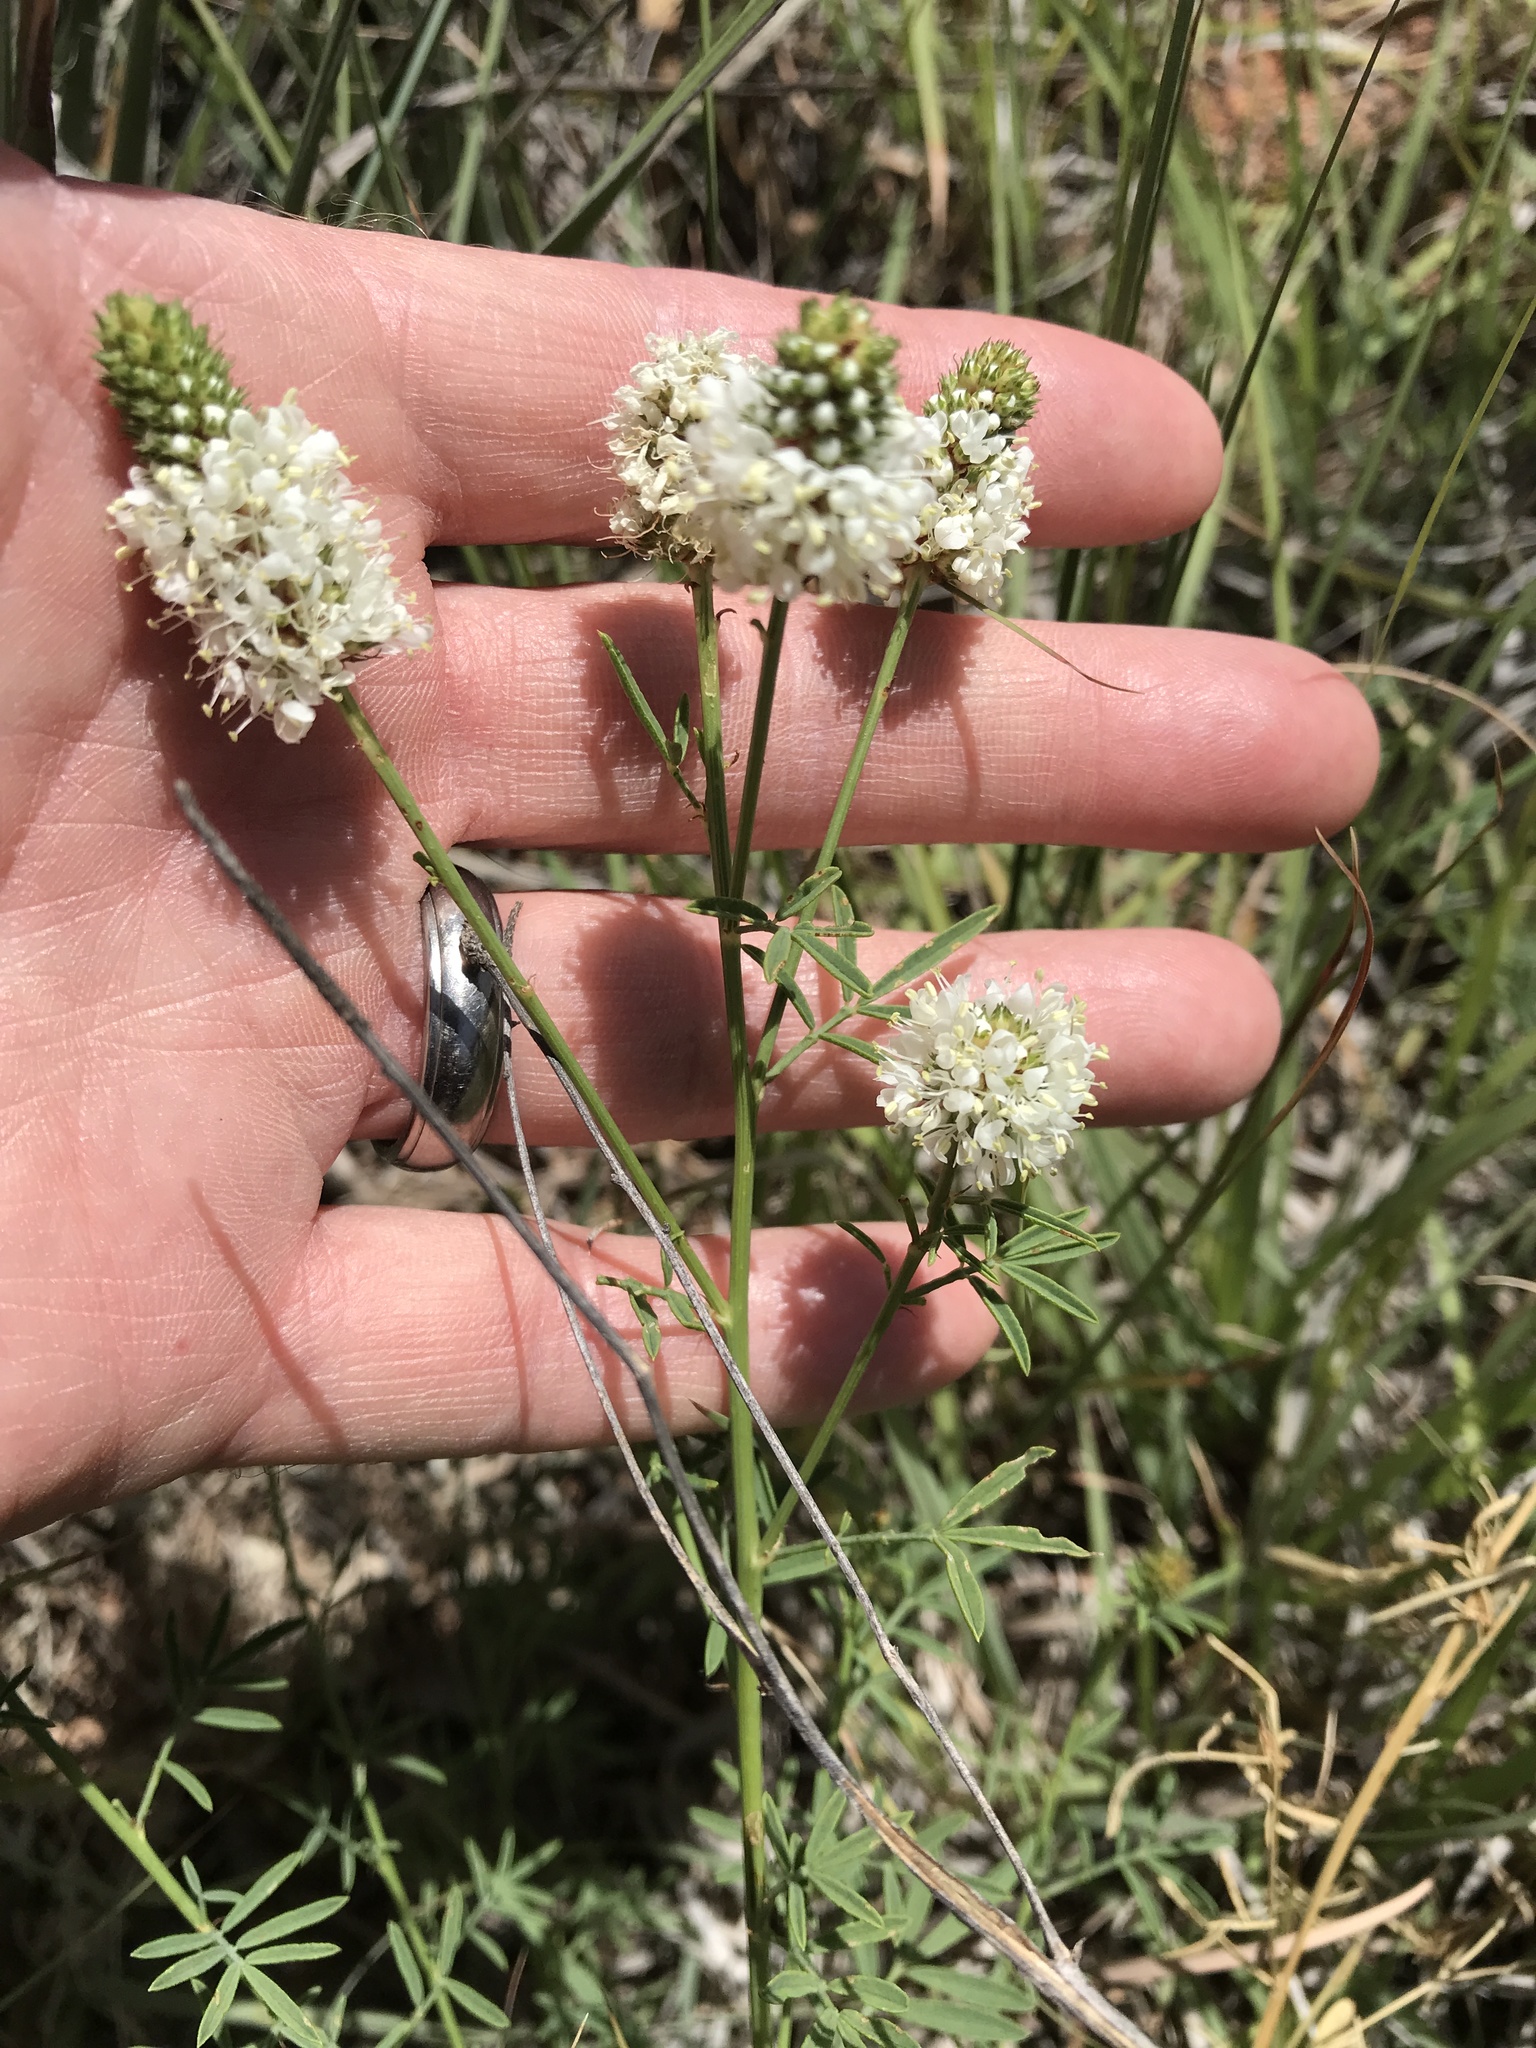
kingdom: Plantae
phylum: Tracheophyta
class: Magnoliopsida
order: Fabales
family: Fabaceae
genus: Dalea
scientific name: Dalea candida
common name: White prairie-clover
